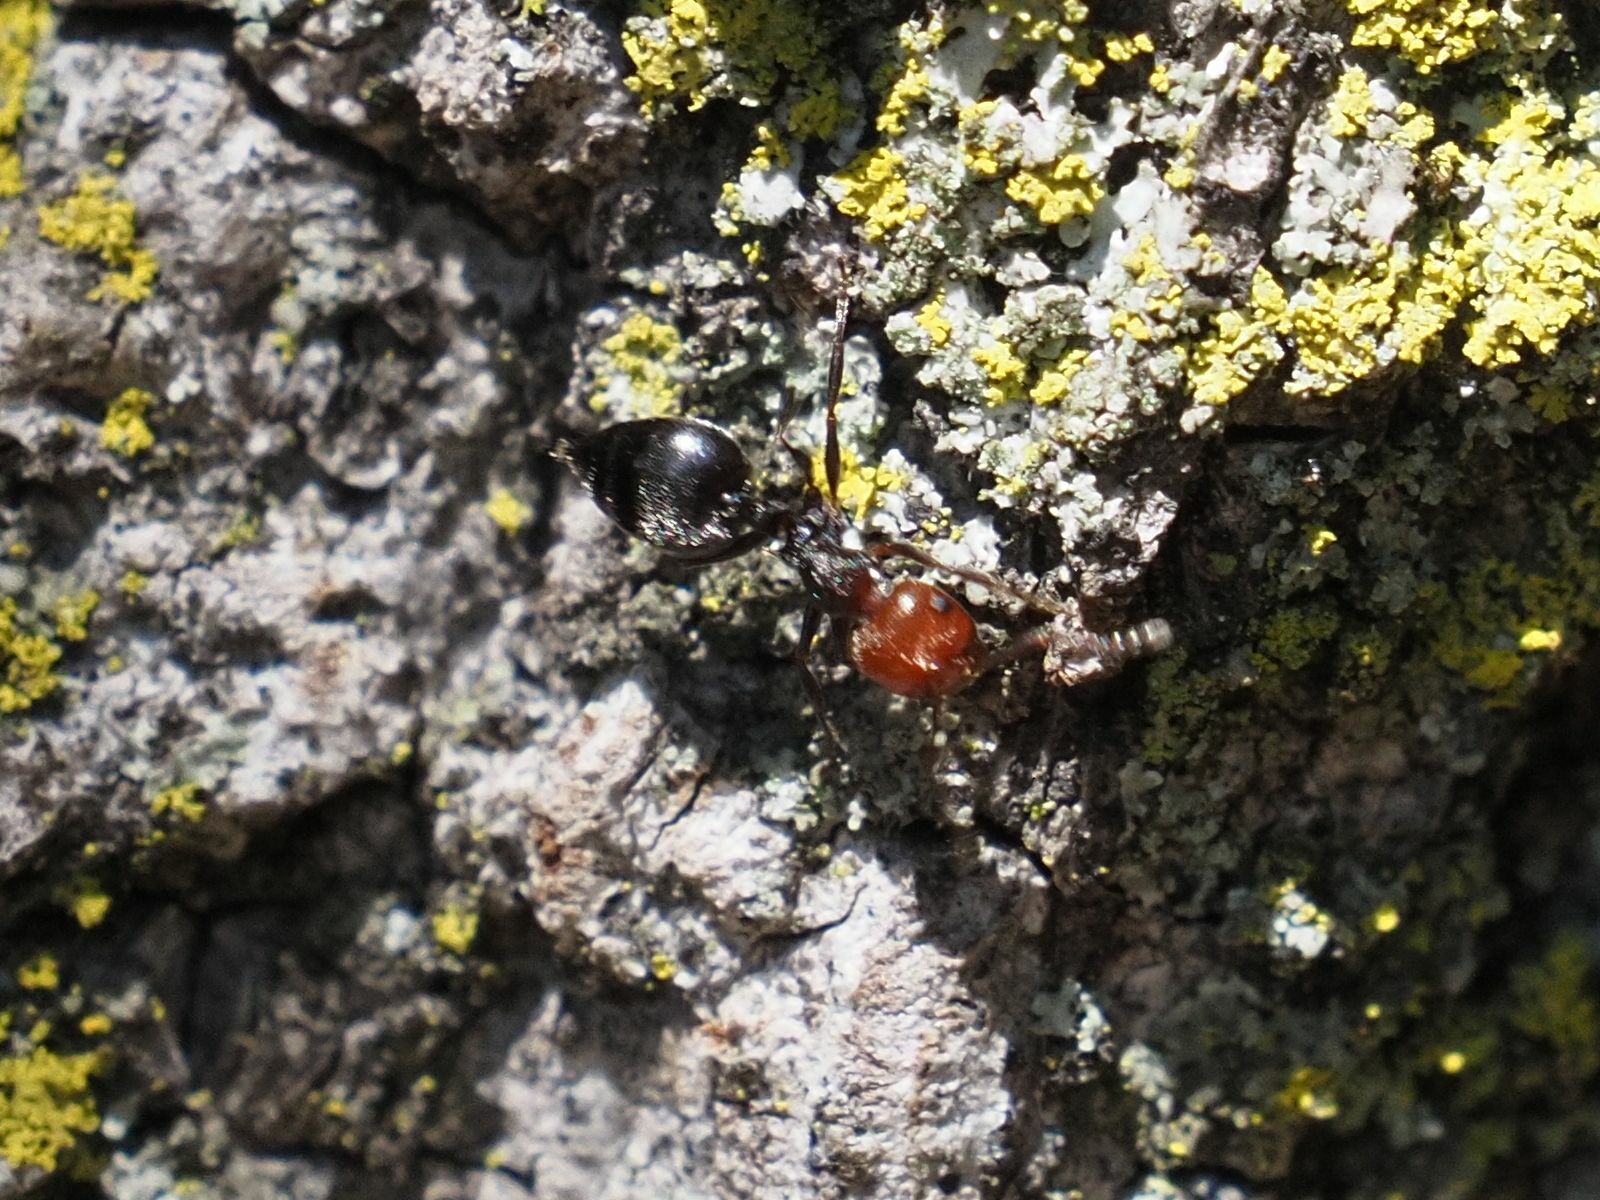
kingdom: Animalia
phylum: Arthropoda
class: Insecta
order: Hymenoptera
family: Formicidae
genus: Crematogaster
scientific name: Crematogaster scutellaris
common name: Fourmi du liège
